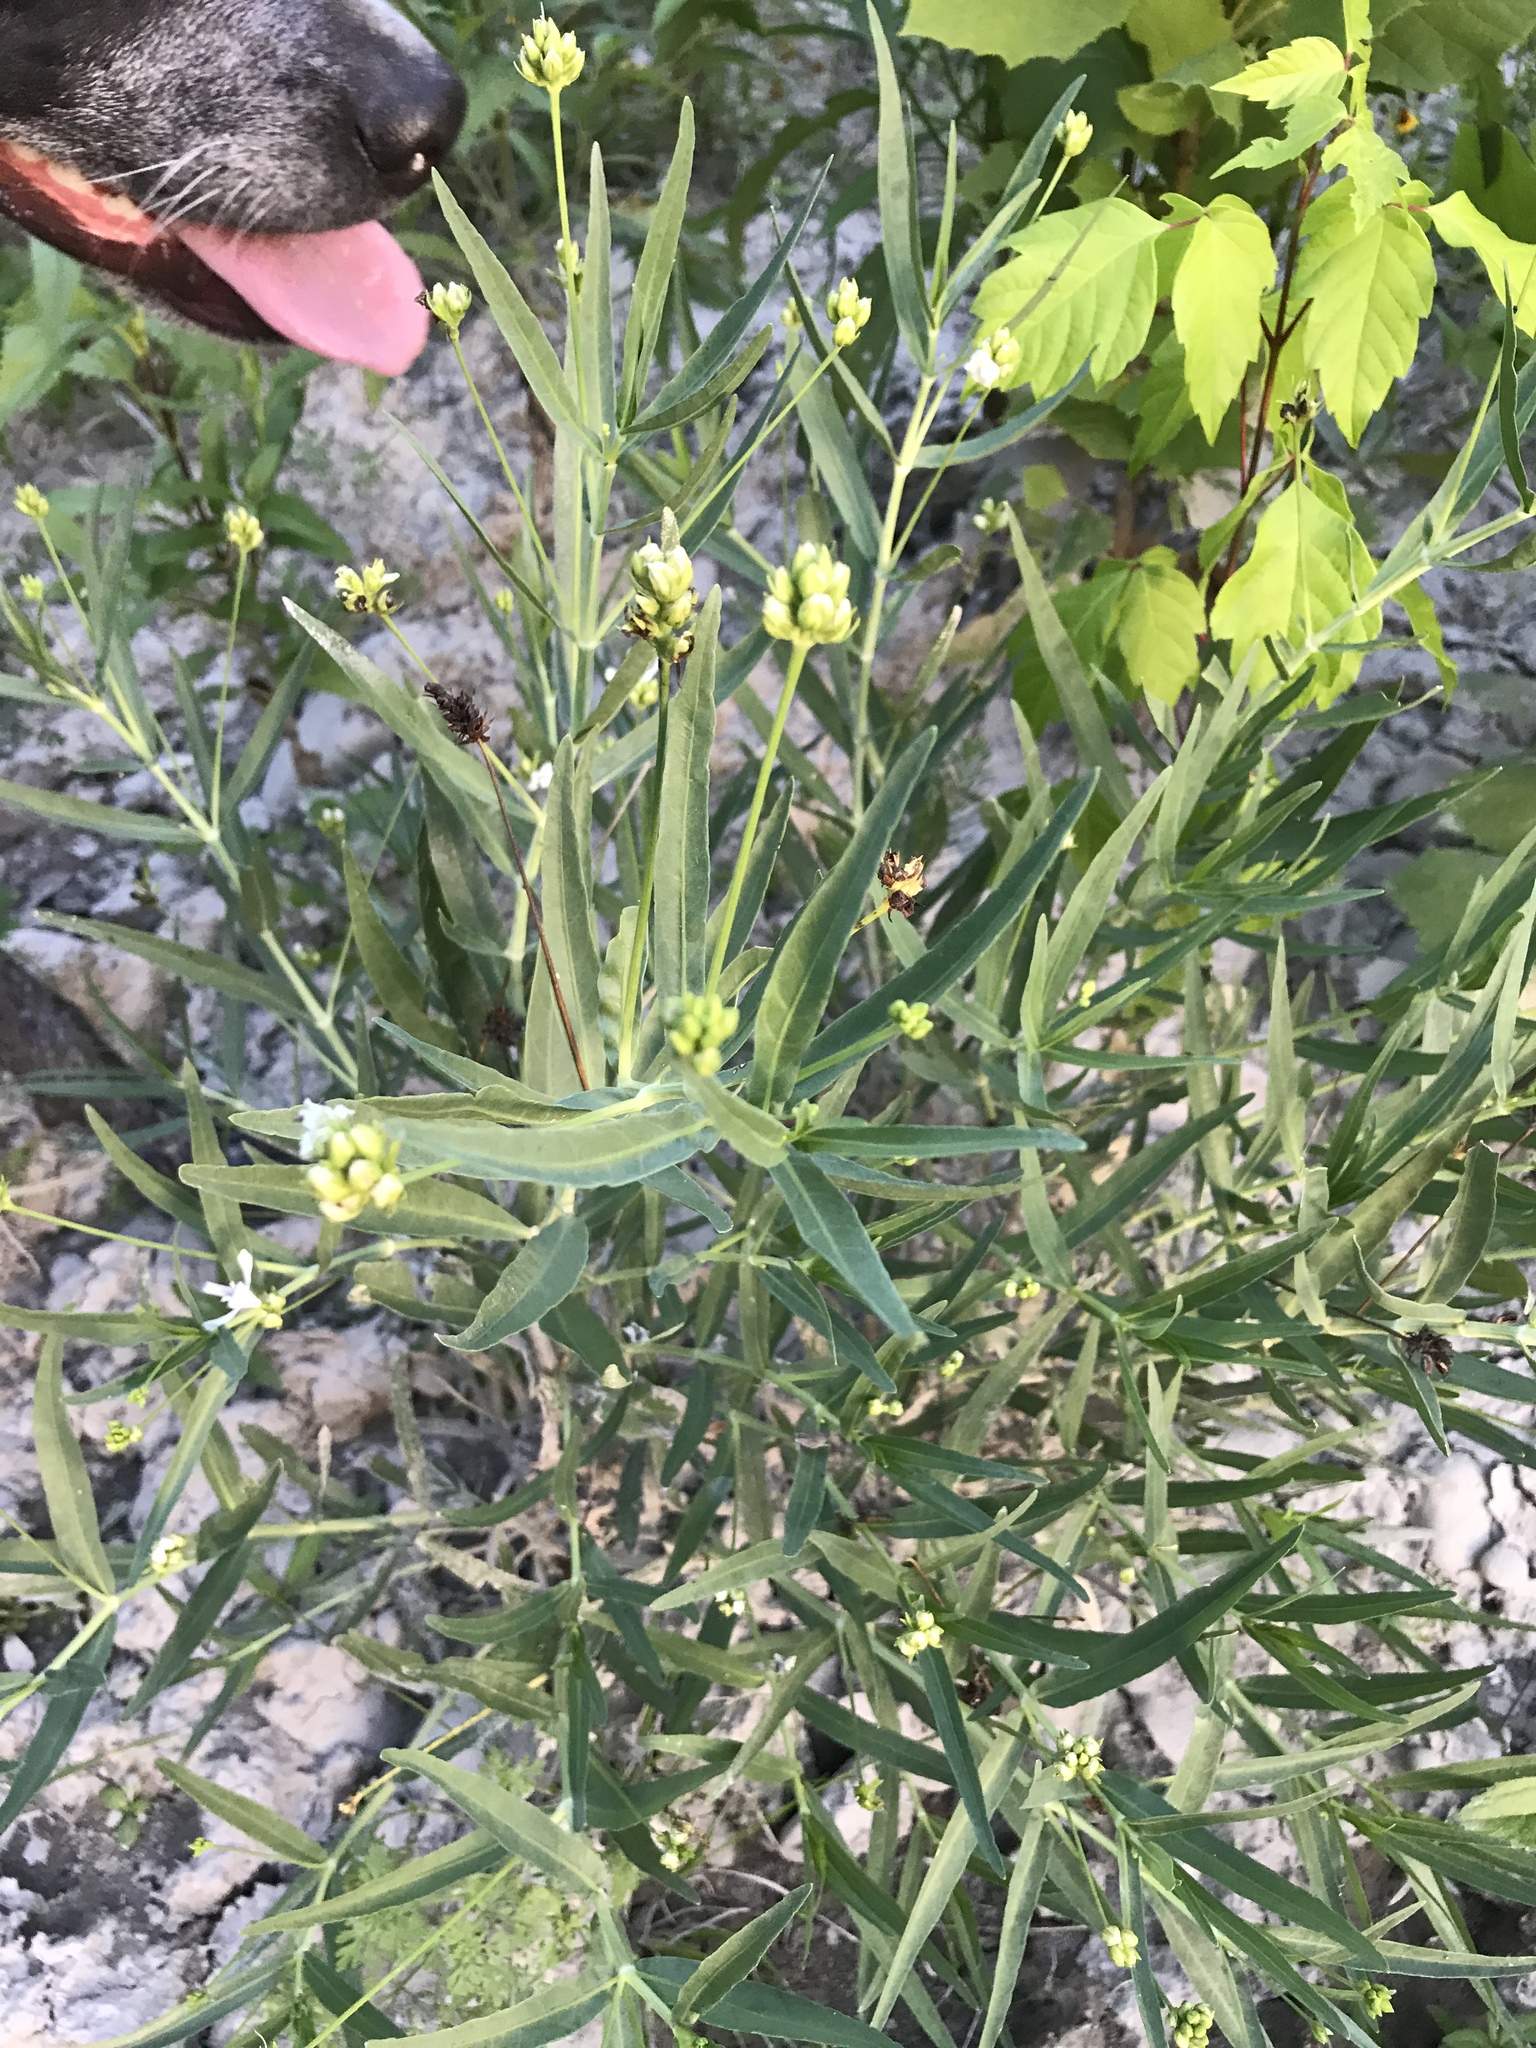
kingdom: Plantae
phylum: Tracheophyta
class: Magnoliopsida
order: Lamiales
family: Acanthaceae
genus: Dianthera
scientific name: Dianthera americana
